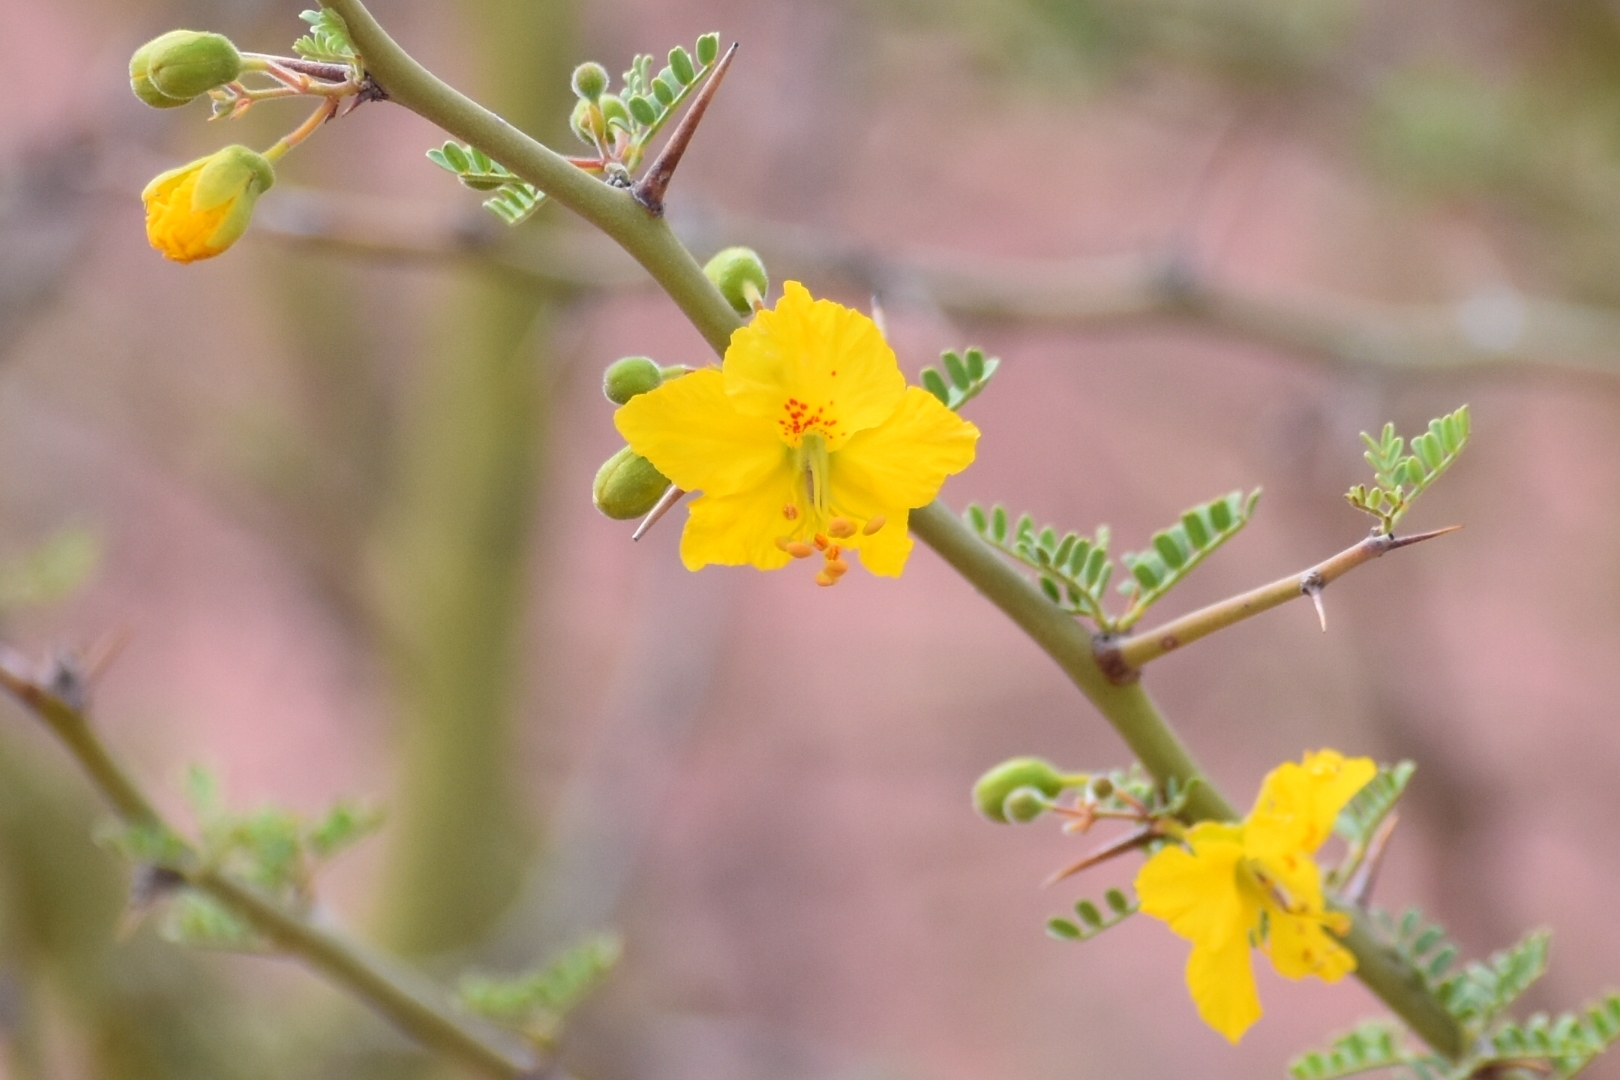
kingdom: Plantae
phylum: Tracheophyta
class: Magnoliopsida
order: Fabales
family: Fabaceae
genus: Parkinsonia
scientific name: Parkinsonia praecox
